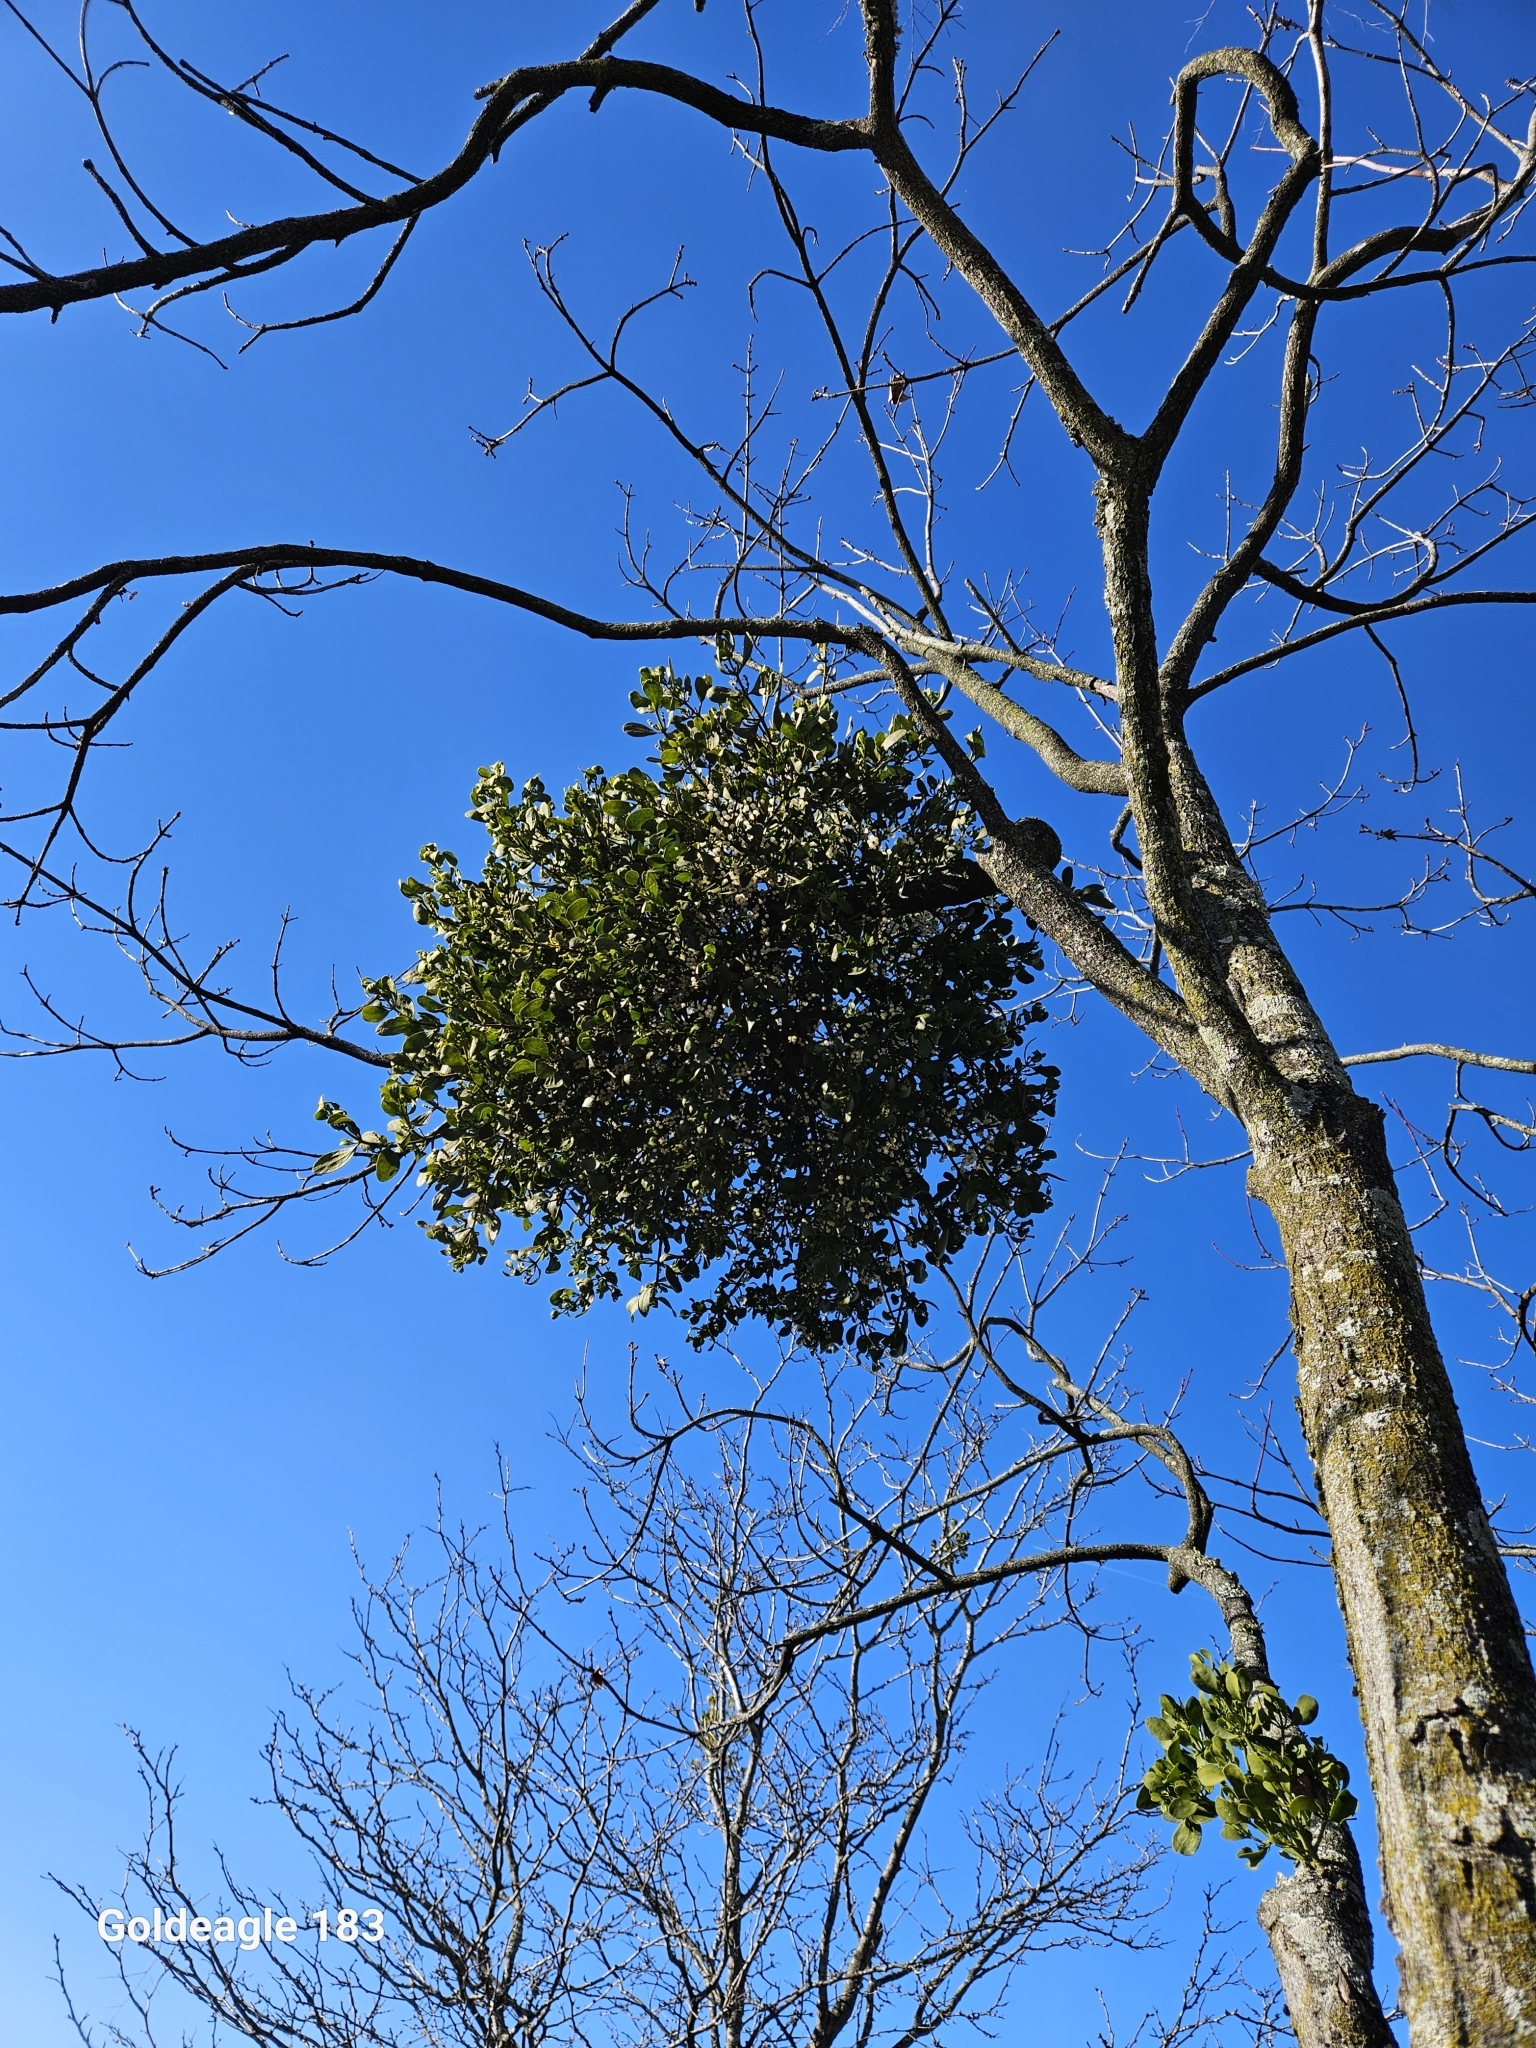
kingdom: Plantae
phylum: Tracheophyta
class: Magnoliopsida
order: Santalales
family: Viscaceae
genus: Phoradendron
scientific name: Phoradendron leucarpum
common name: Pacific mistletoe
